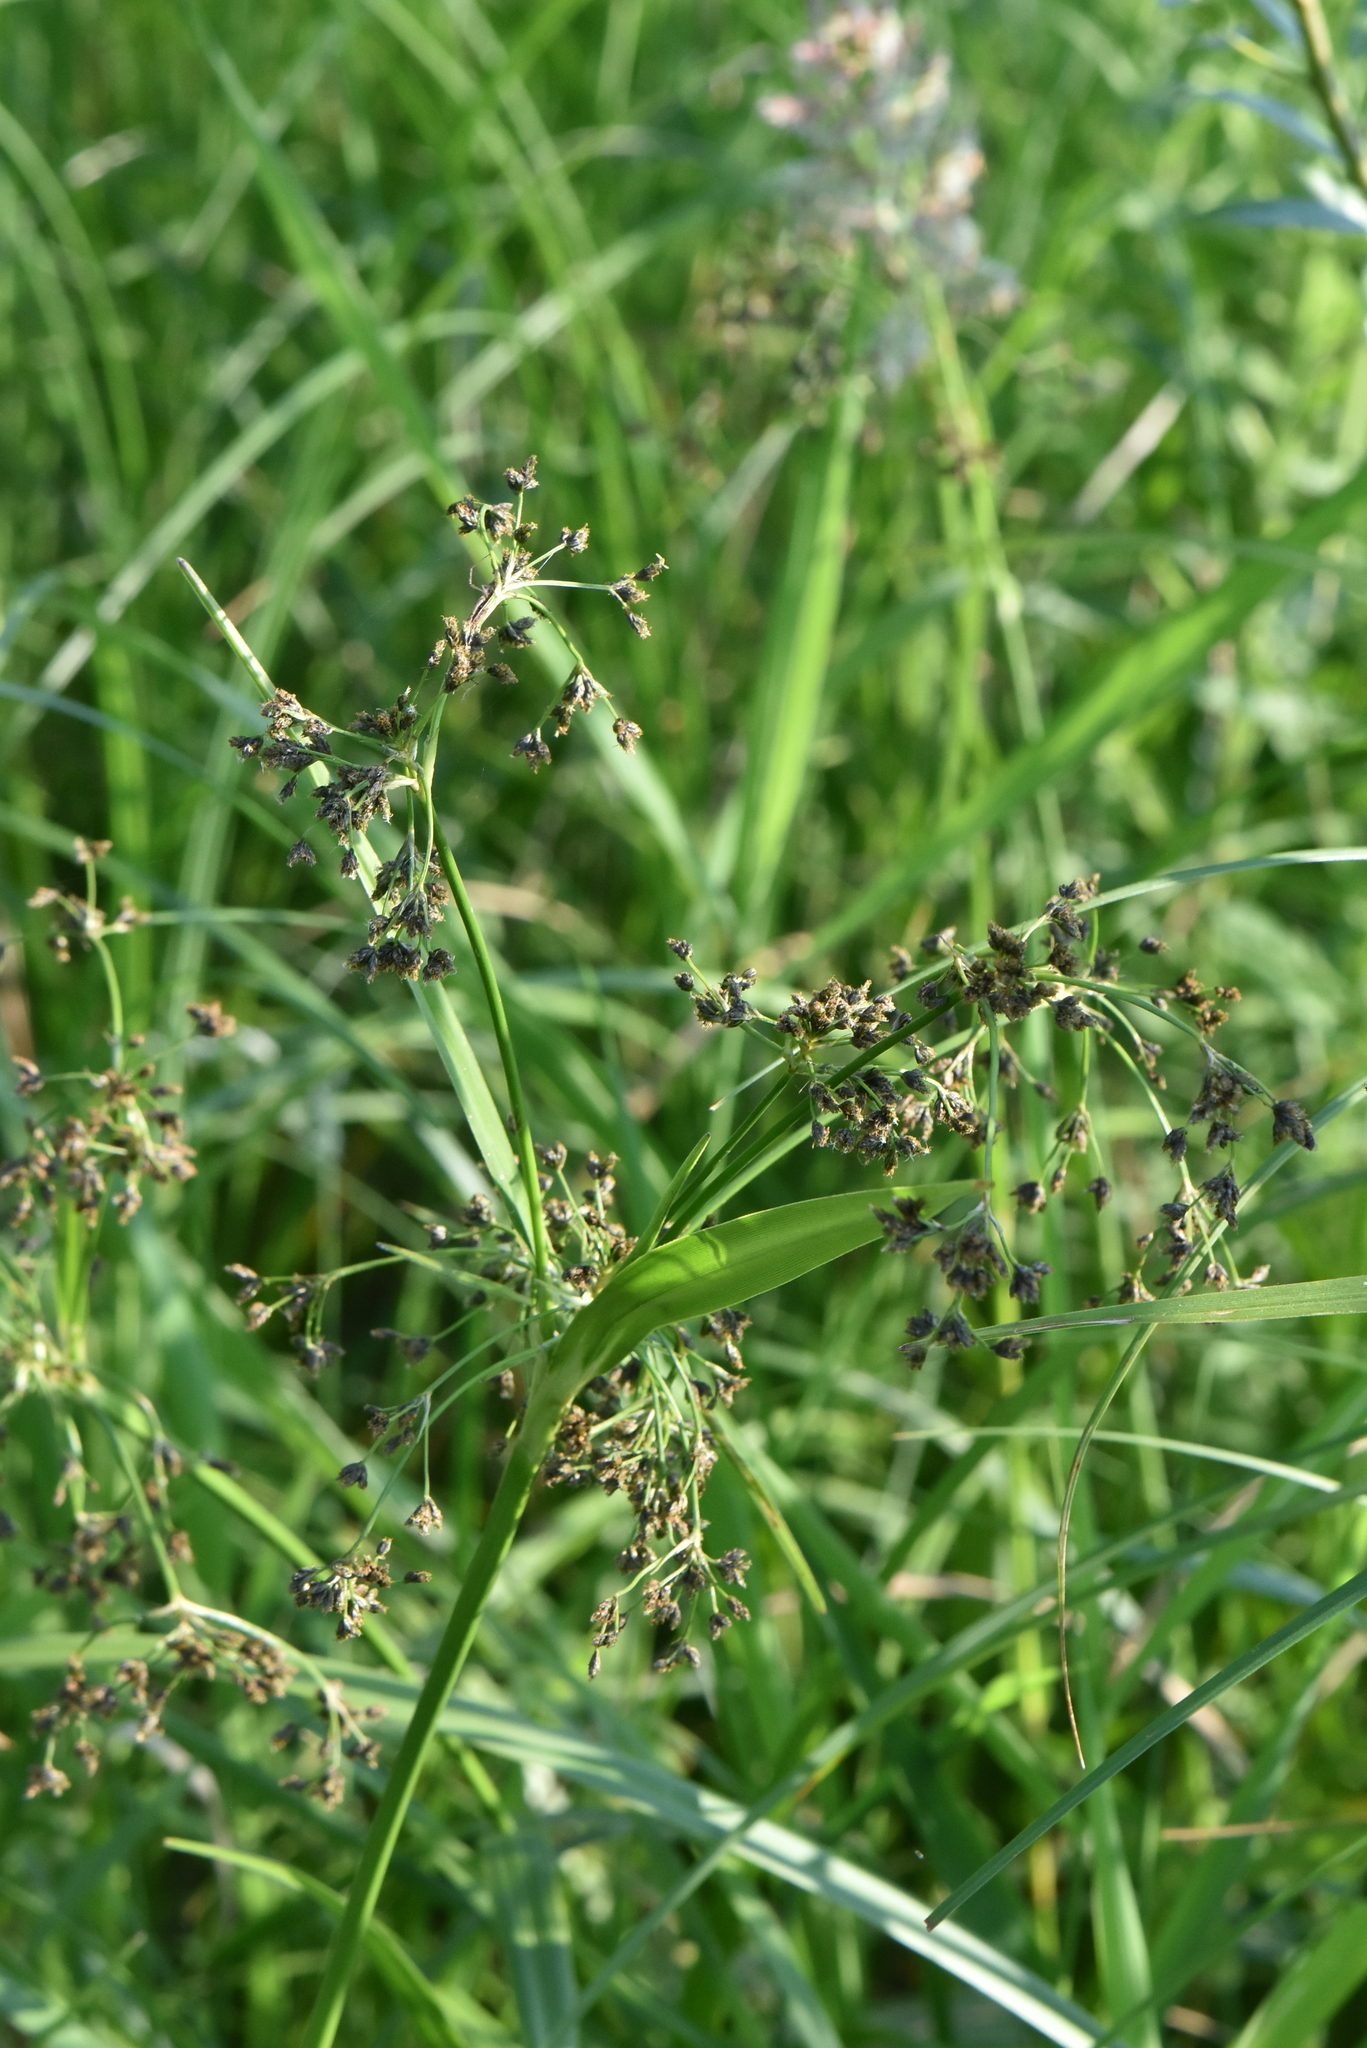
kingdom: Plantae
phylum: Tracheophyta
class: Liliopsida
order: Poales
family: Cyperaceae
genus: Scirpus
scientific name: Scirpus sylvaticus
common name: Wood club-rush
